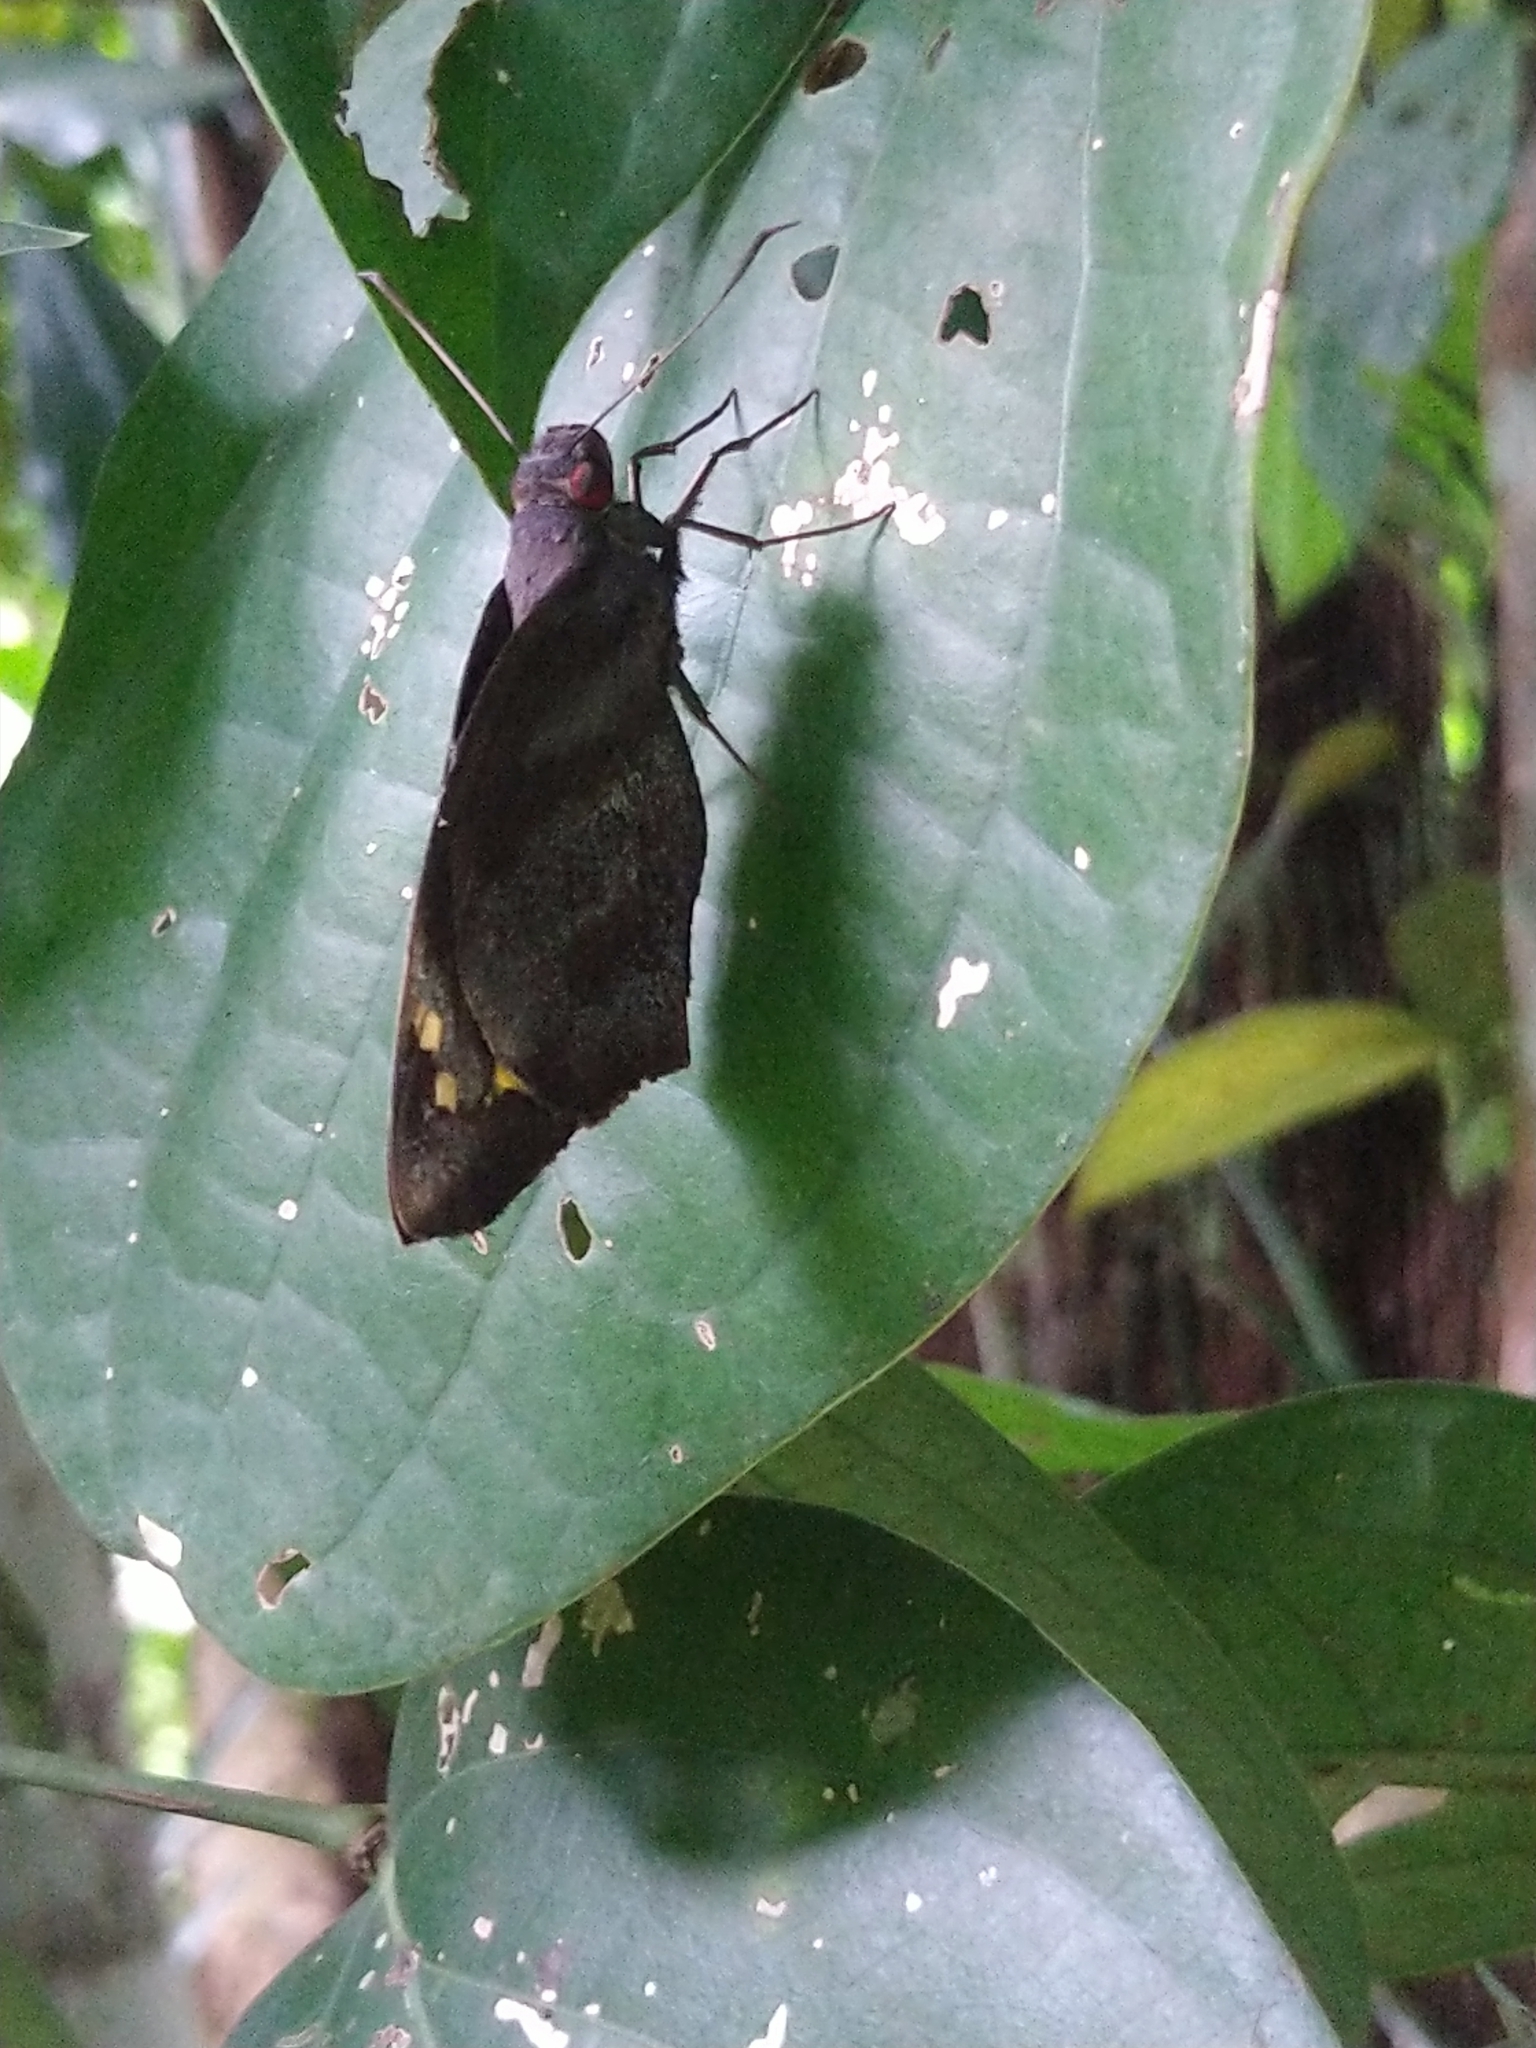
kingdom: Animalia
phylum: Arthropoda
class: Insecta
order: Lepidoptera
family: Hesperiidae
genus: Gangara
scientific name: Gangara thyrsis
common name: Giant redeye
